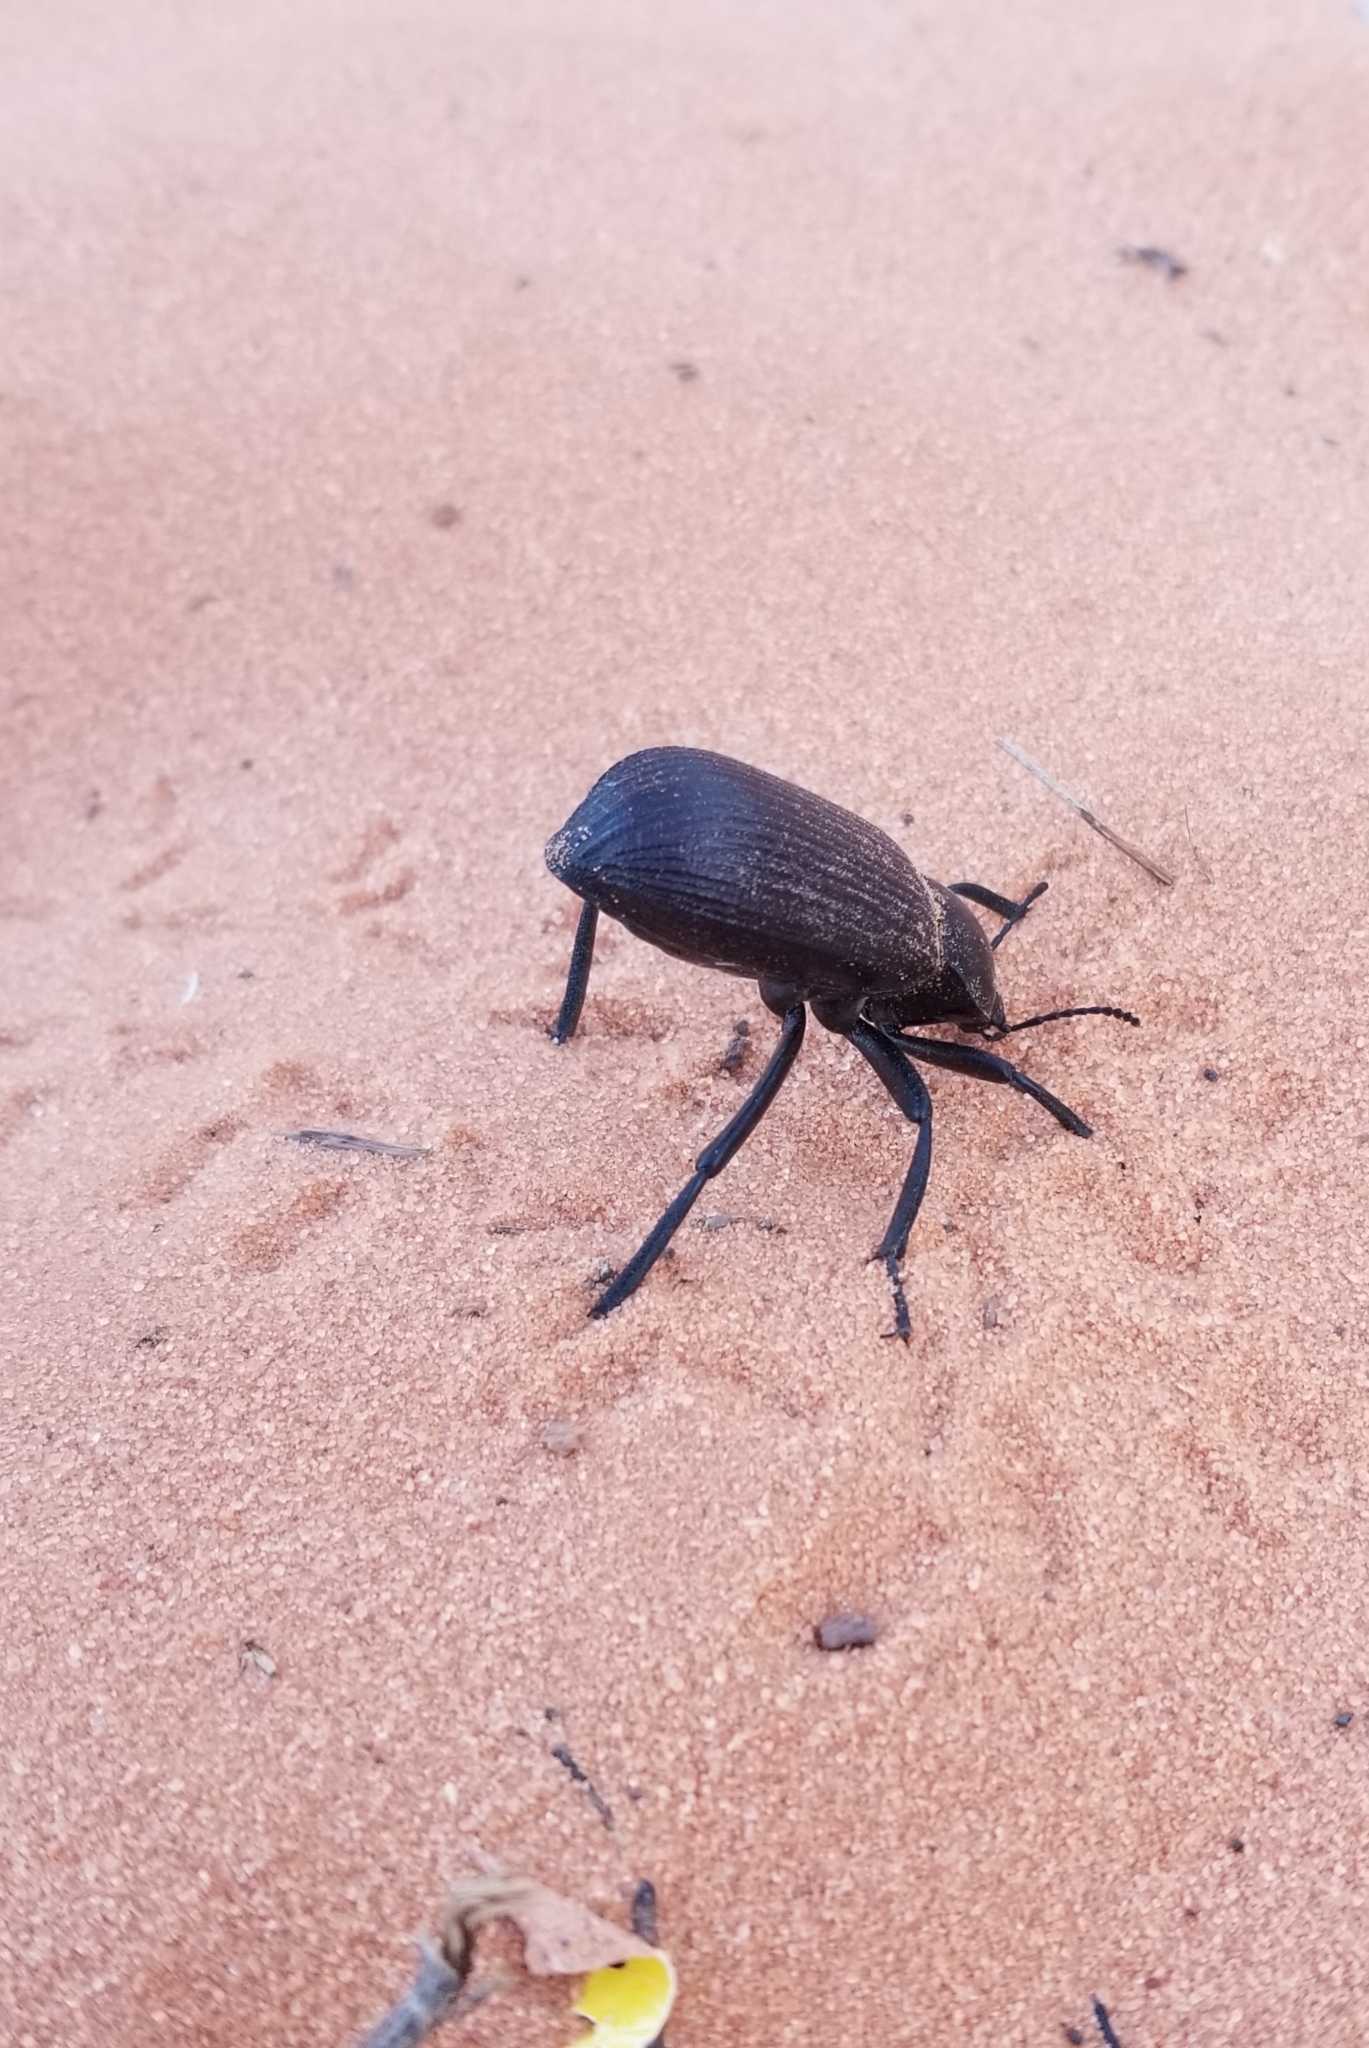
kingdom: Animalia
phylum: Arthropoda
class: Insecta
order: Coleoptera
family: Tenebrionidae
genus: Eleodes
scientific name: Eleodes obscura
